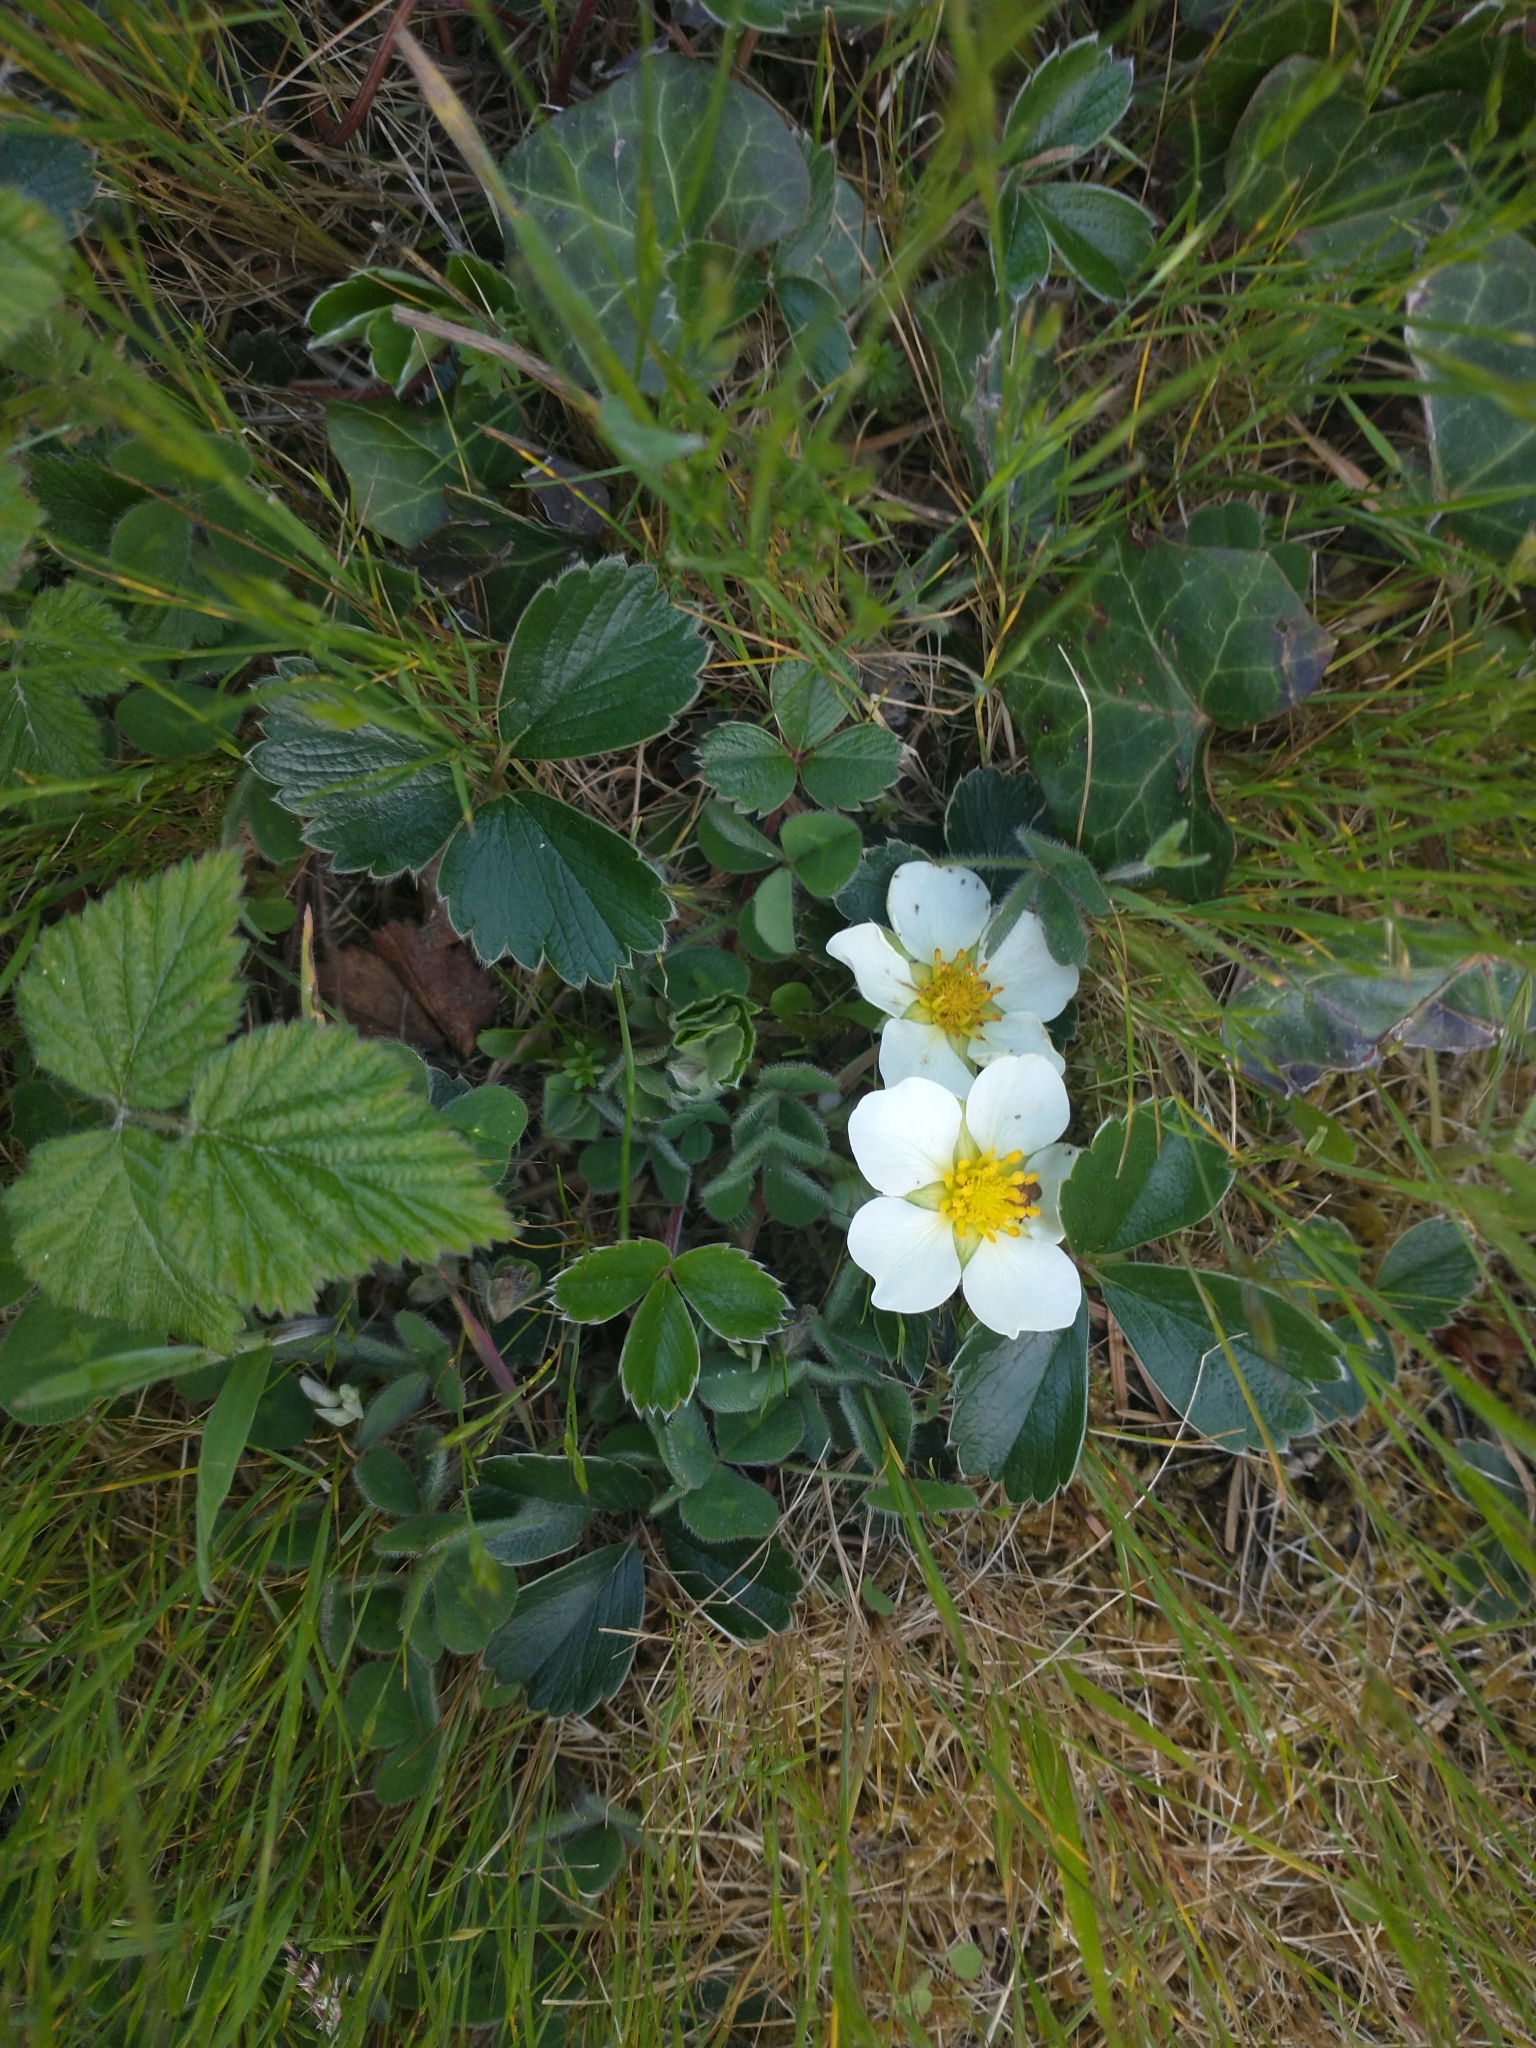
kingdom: Plantae
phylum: Tracheophyta
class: Magnoliopsida
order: Rosales
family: Rosaceae
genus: Fragaria
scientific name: Fragaria chiloensis
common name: Beach strawberry
